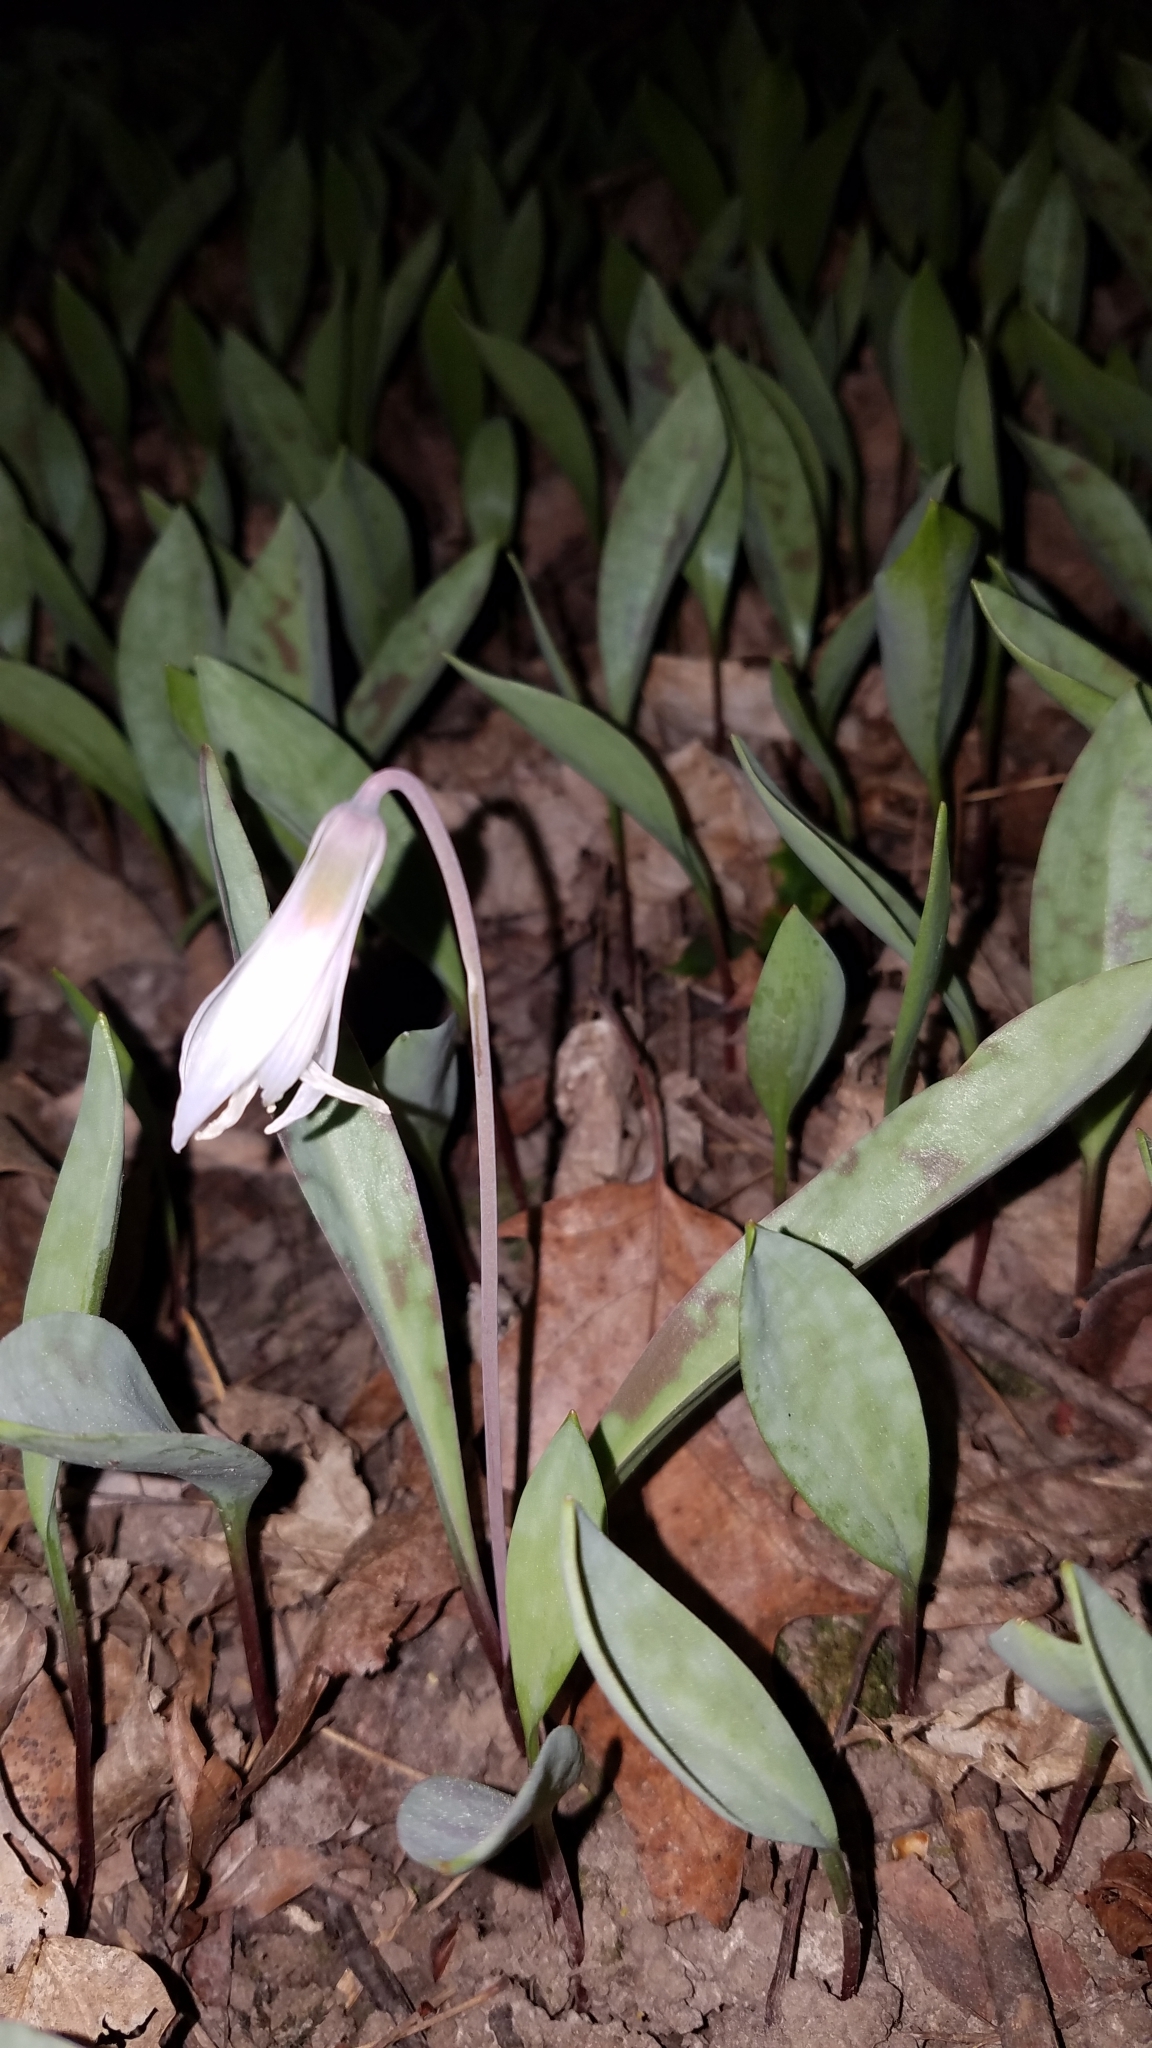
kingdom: Plantae
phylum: Tracheophyta
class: Liliopsida
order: Liliales
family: Liliaceae
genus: Erythronium
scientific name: Erythronium albidum
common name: White trout-lily
